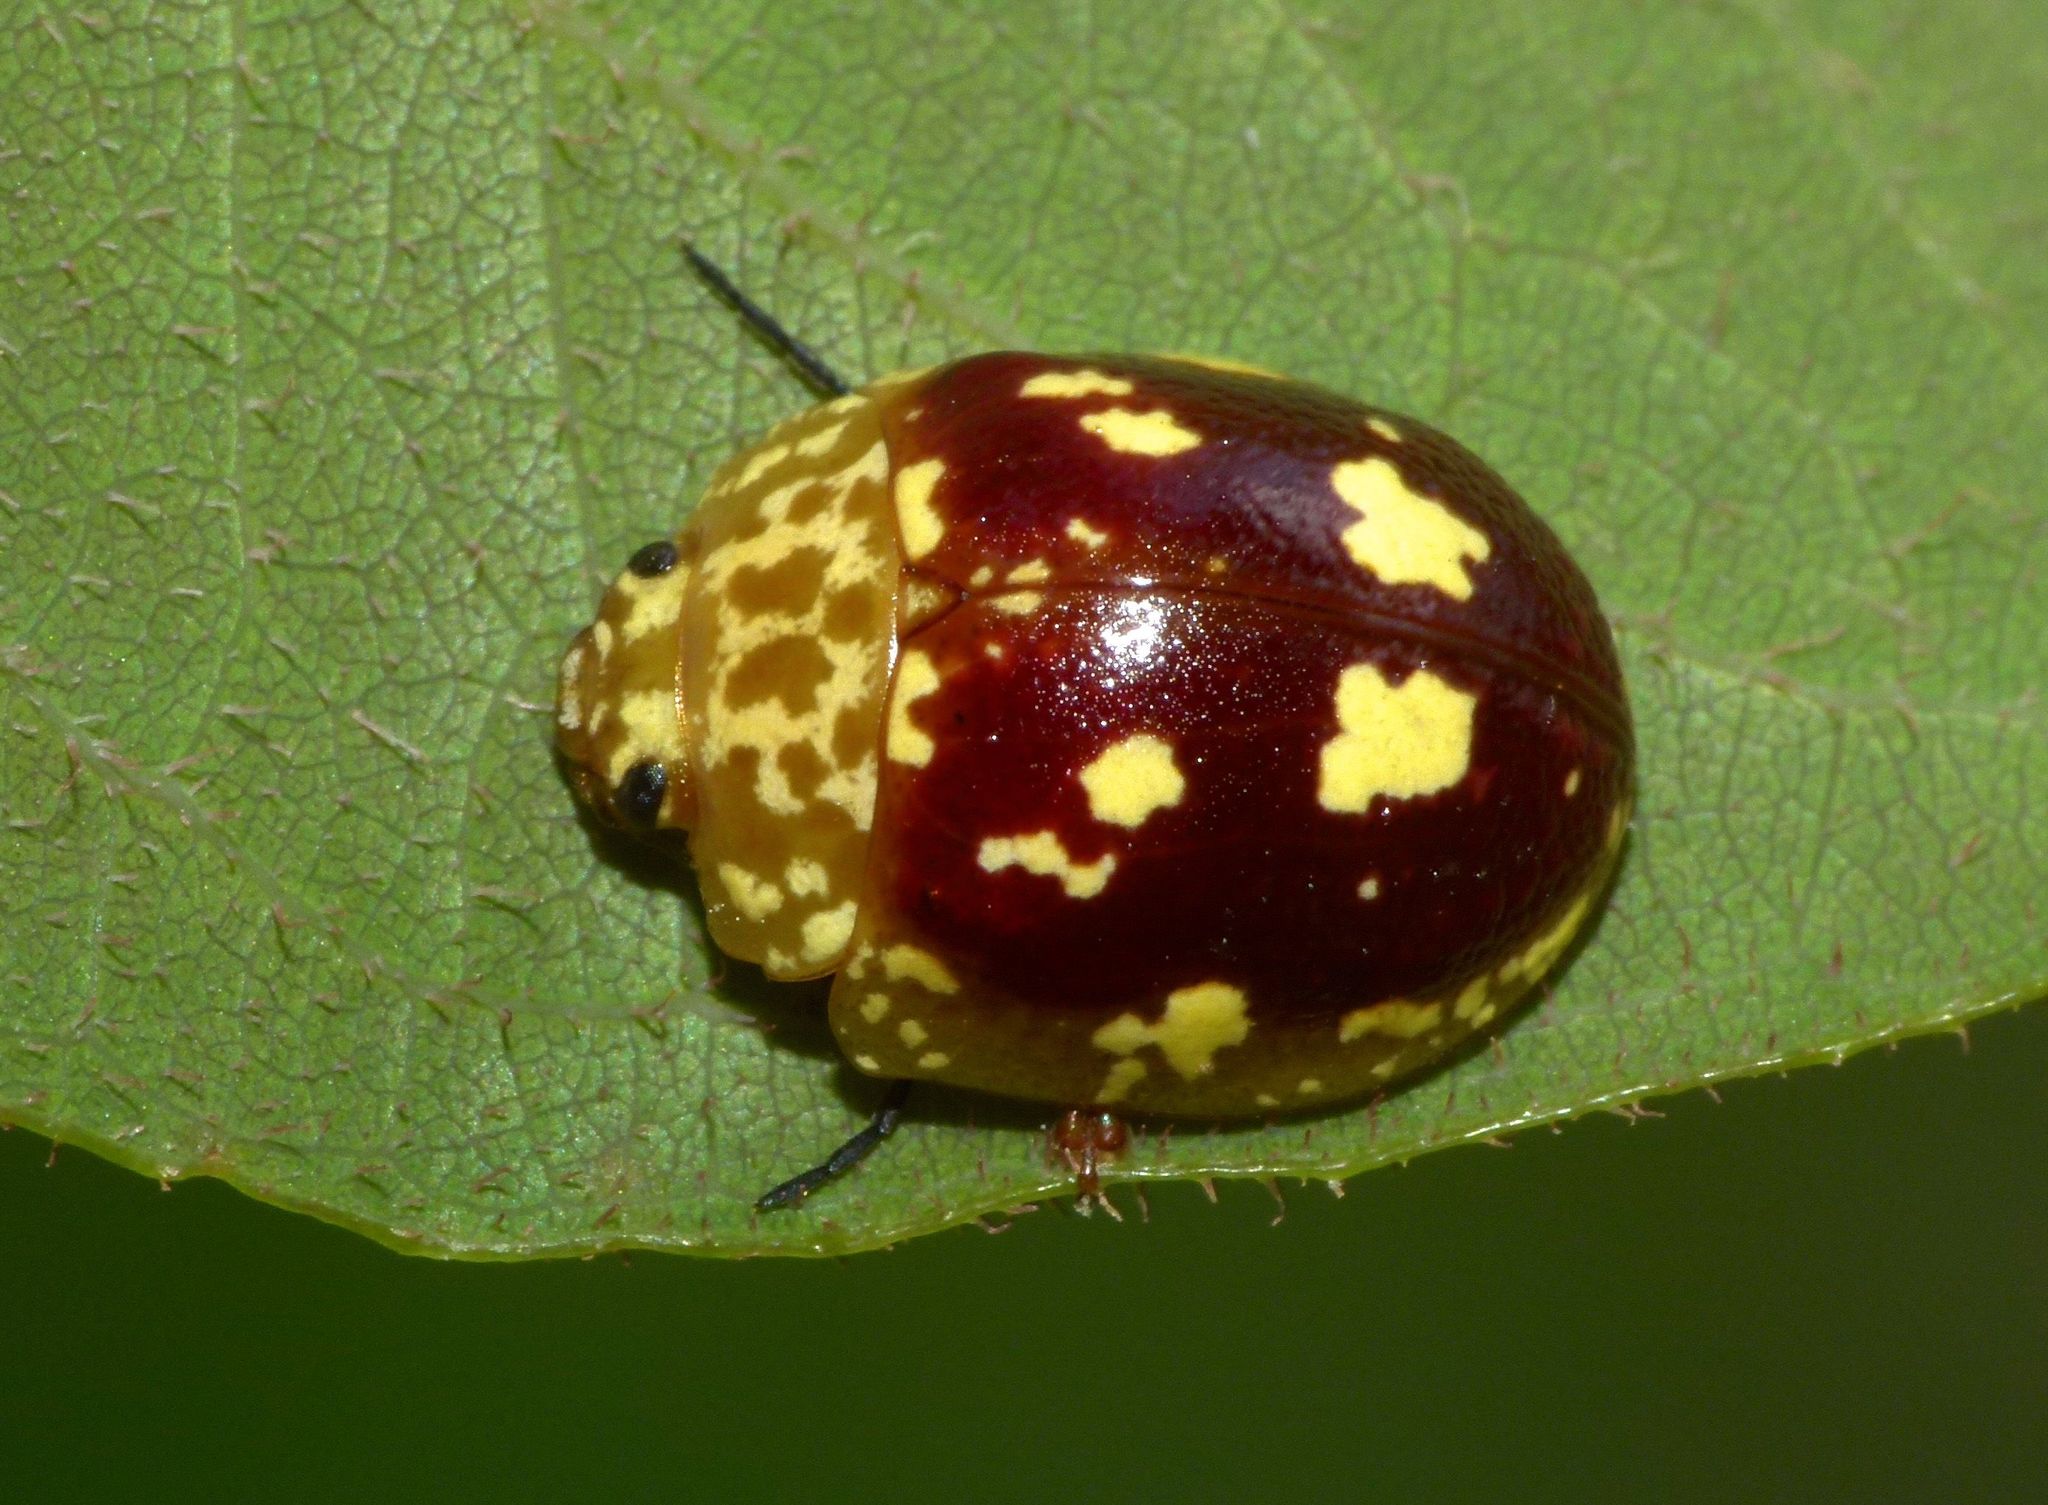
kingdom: Animalia
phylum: Arthropoda
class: Insecta
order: Coleoptera
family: Chrysomelidae
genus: Paropsis
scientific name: Paropsis maculata
